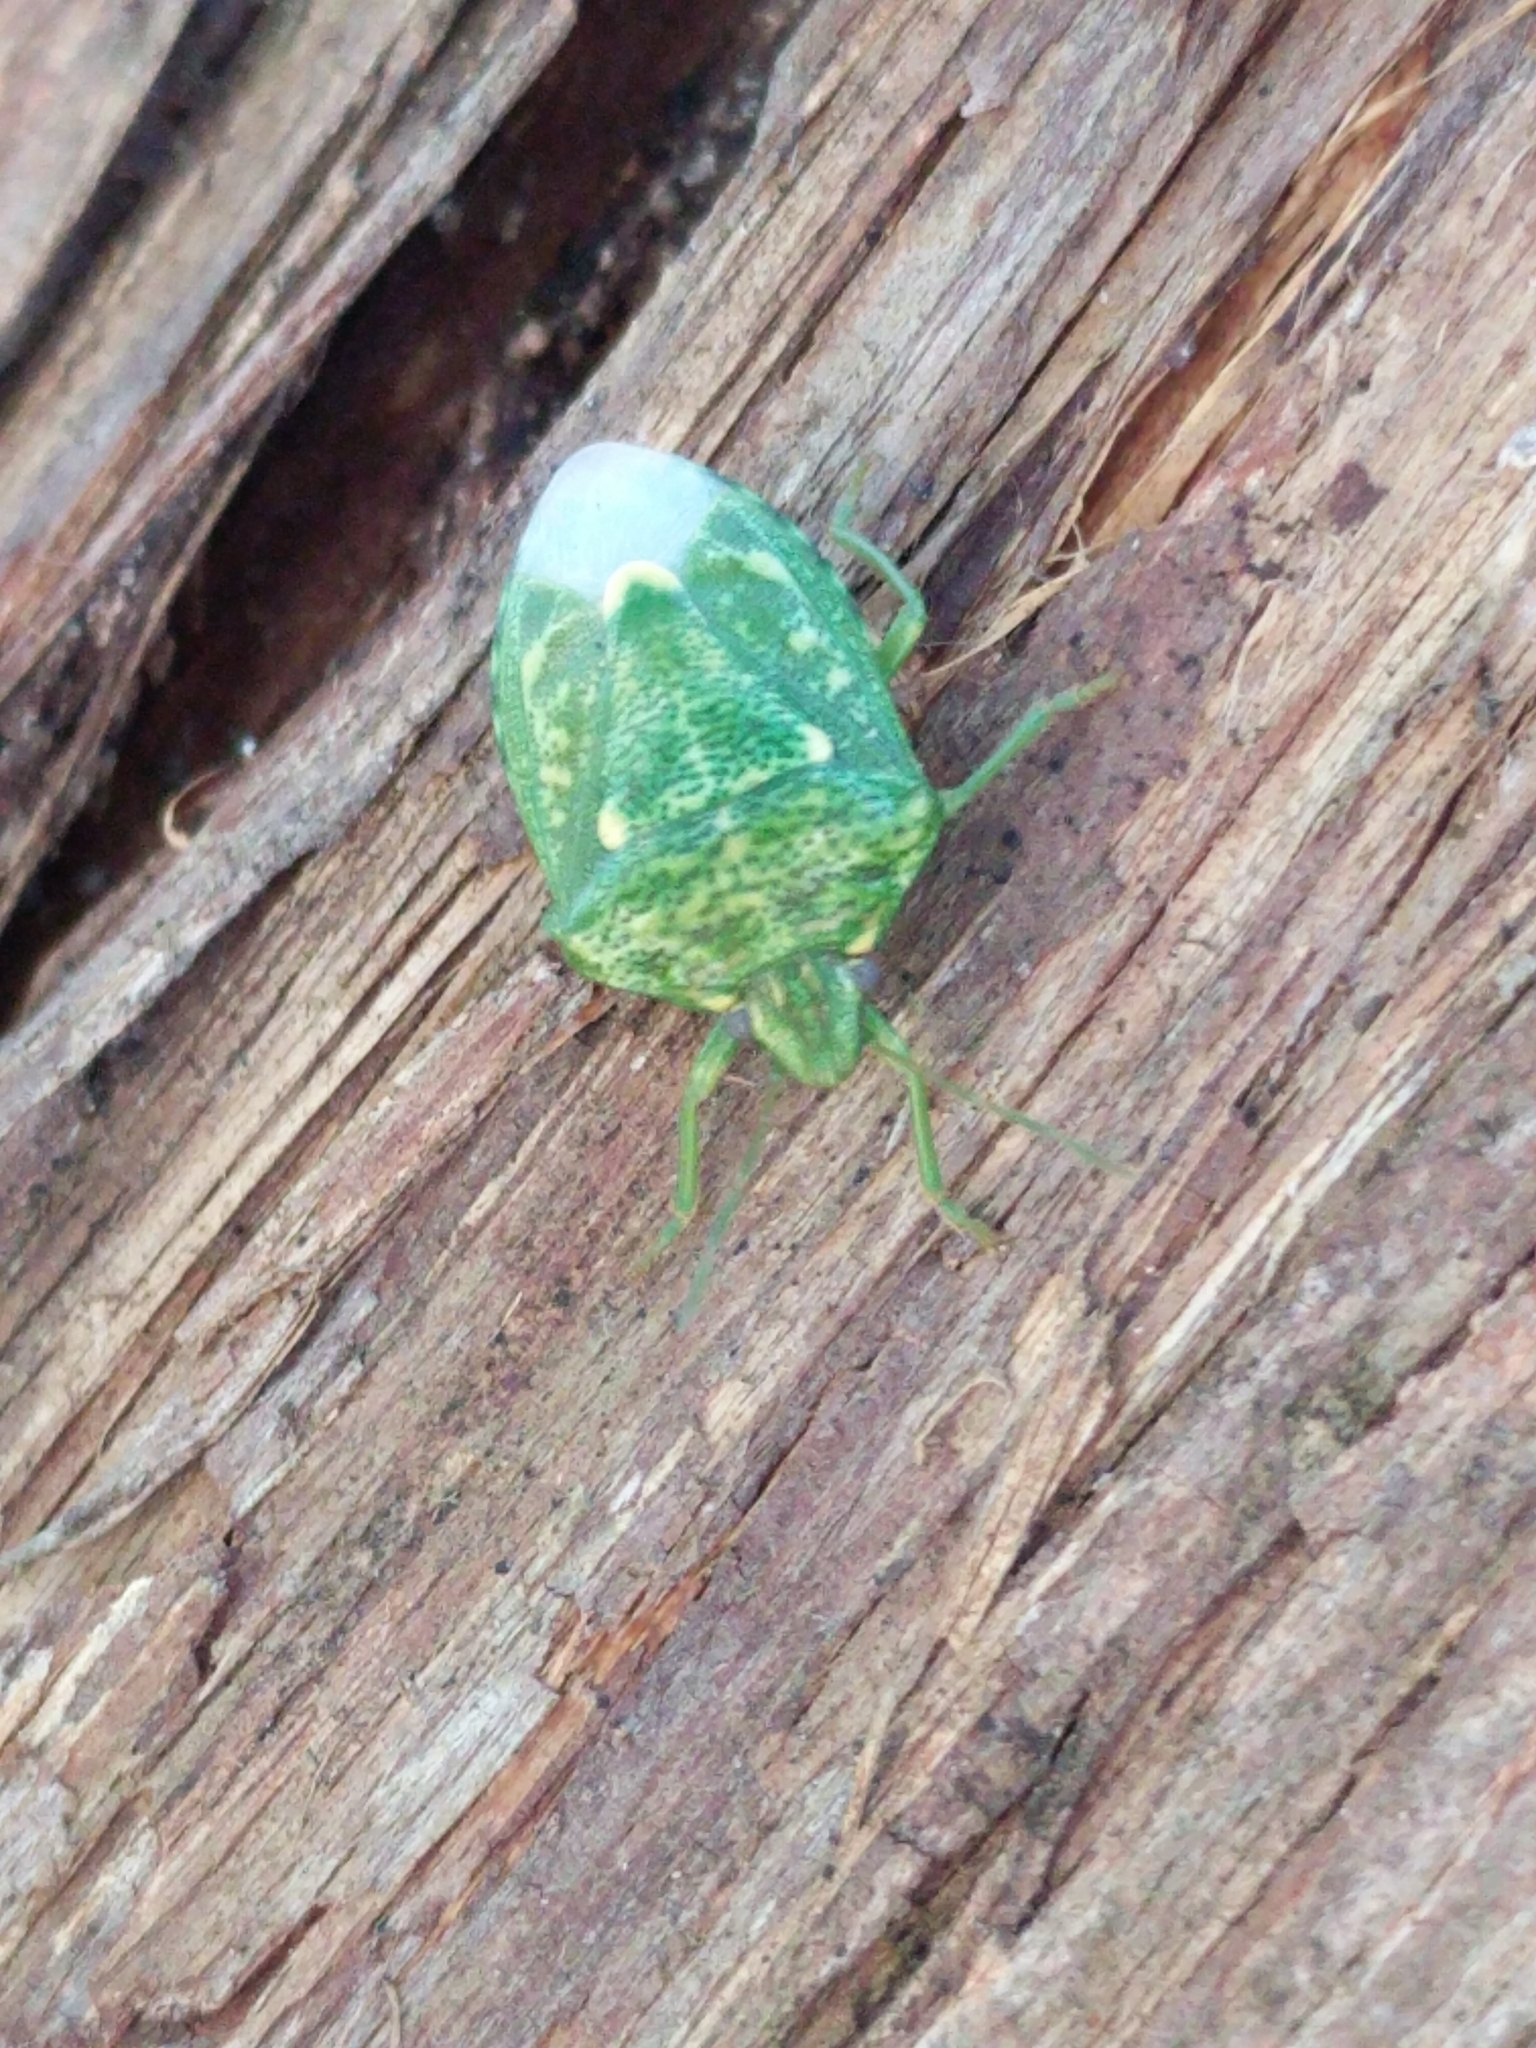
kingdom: Animalia
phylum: Arthropoda
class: Insecta
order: Hemiptera
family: Pentatomidae
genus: Banasa
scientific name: Banasa euchlora
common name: Cedar berry bug
